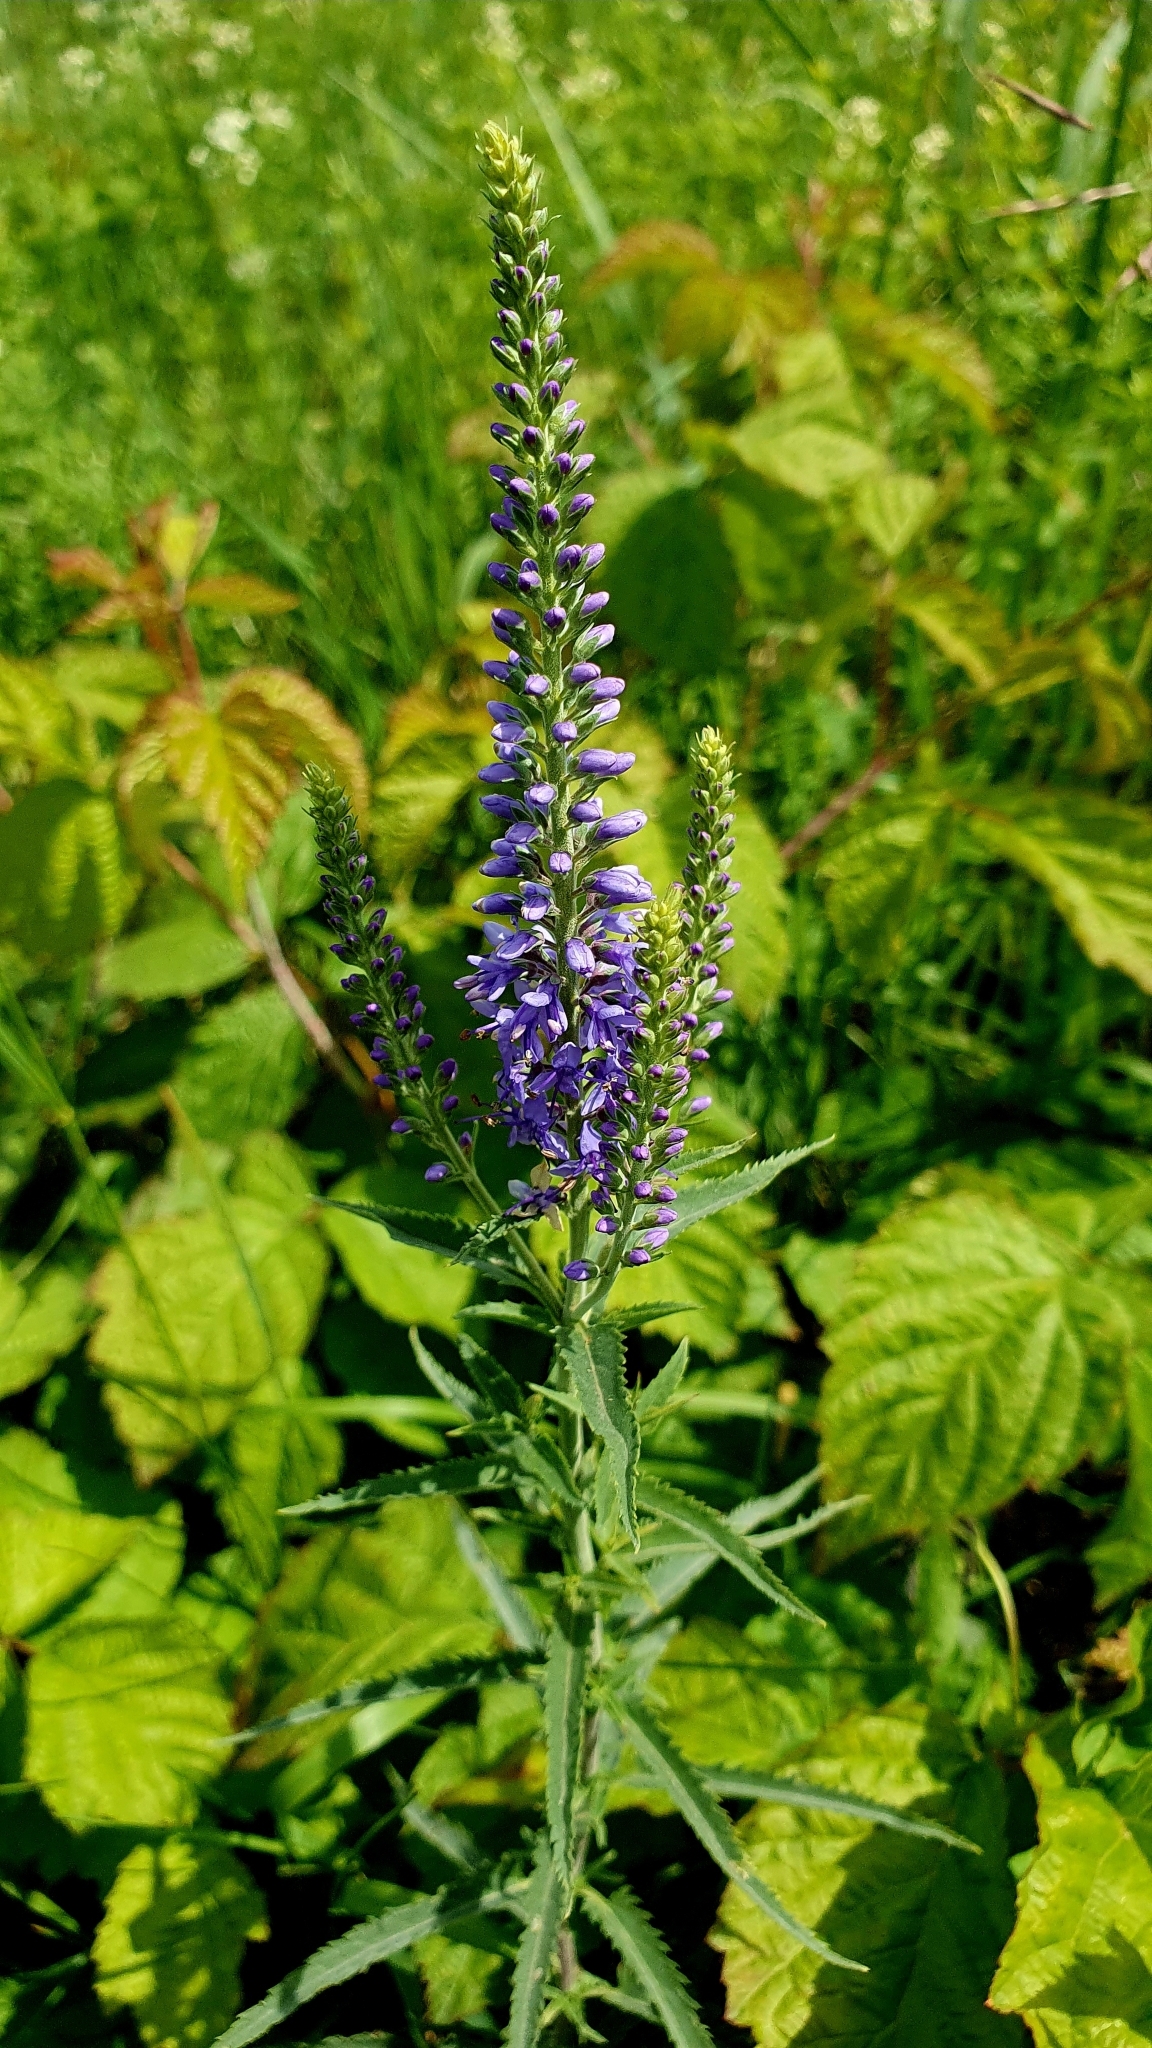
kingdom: Plantae
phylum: Tracheophyta
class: Magnoliopsida
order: Lamiales
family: Plantaginaceae
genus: Veronica
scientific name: Veronica longifolia
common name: Garden speedwell
